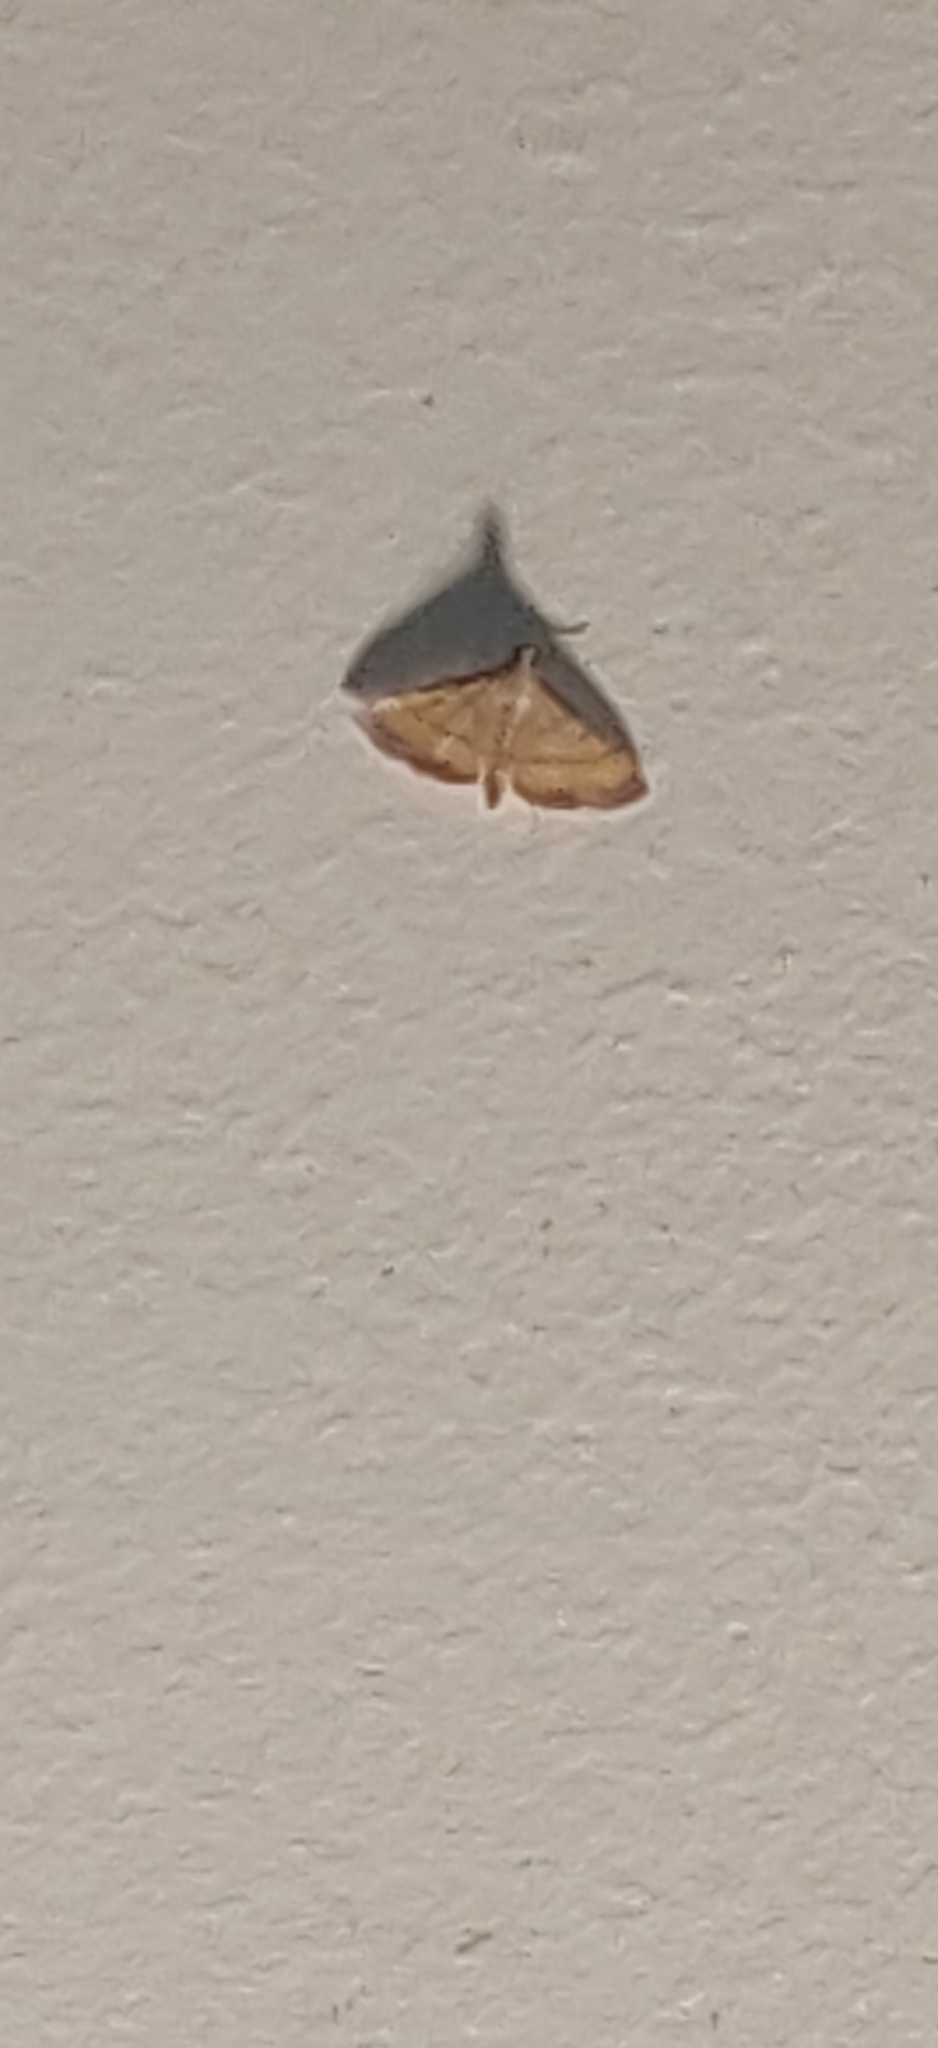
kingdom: Animalia
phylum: Arthropoda
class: Insecta
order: Lepidoptera
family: Crambidae
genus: Cnaphalocrocis
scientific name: Cnaphalocrocis medinalis
